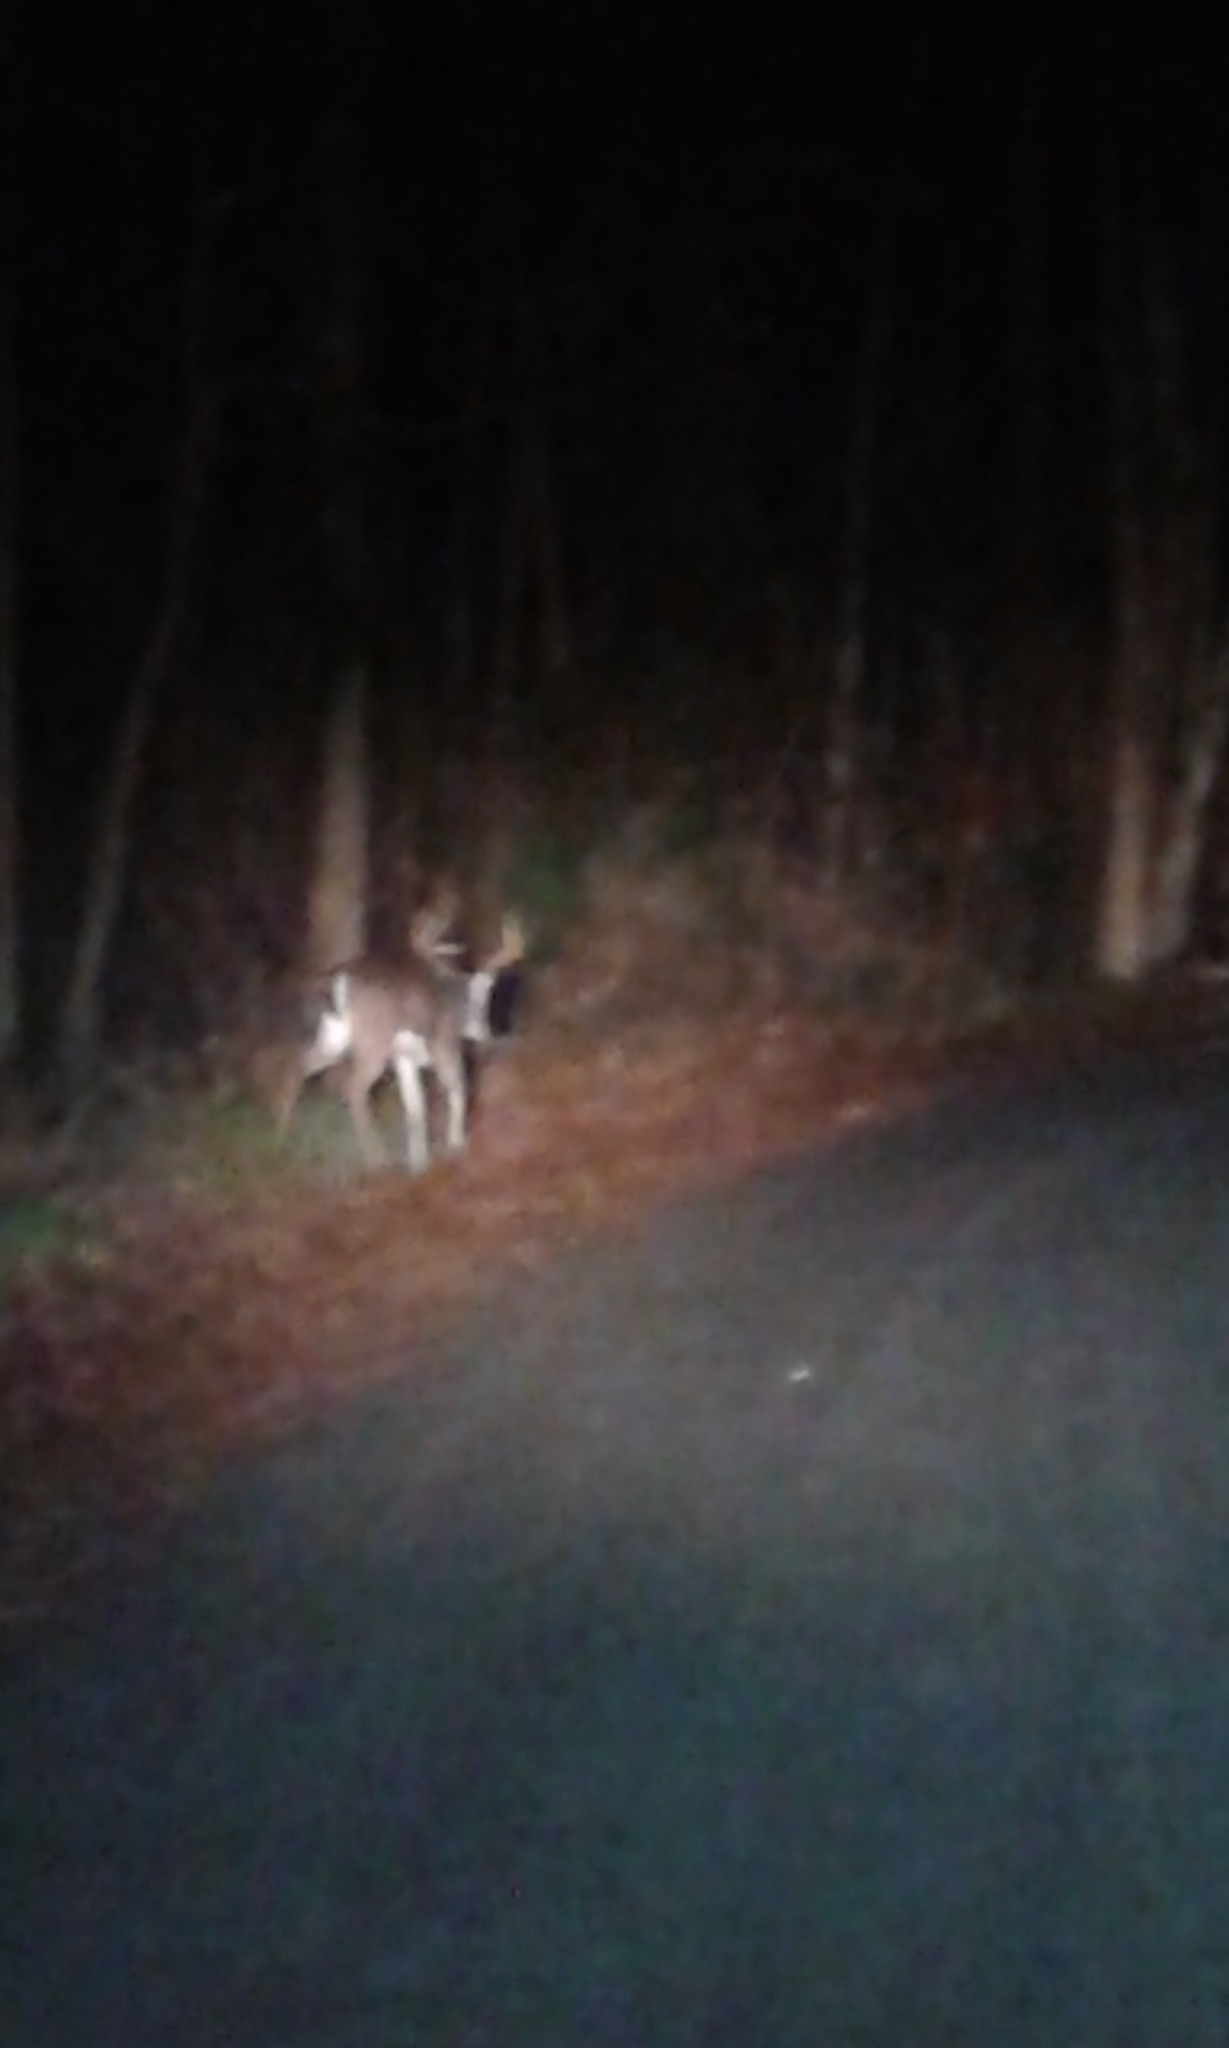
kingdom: Animalia
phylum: Chordata
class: Mammalia
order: Artiodactyla
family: Cervidae
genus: Odocoileus
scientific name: Odocoileus virginianus
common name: White-tailed deer
